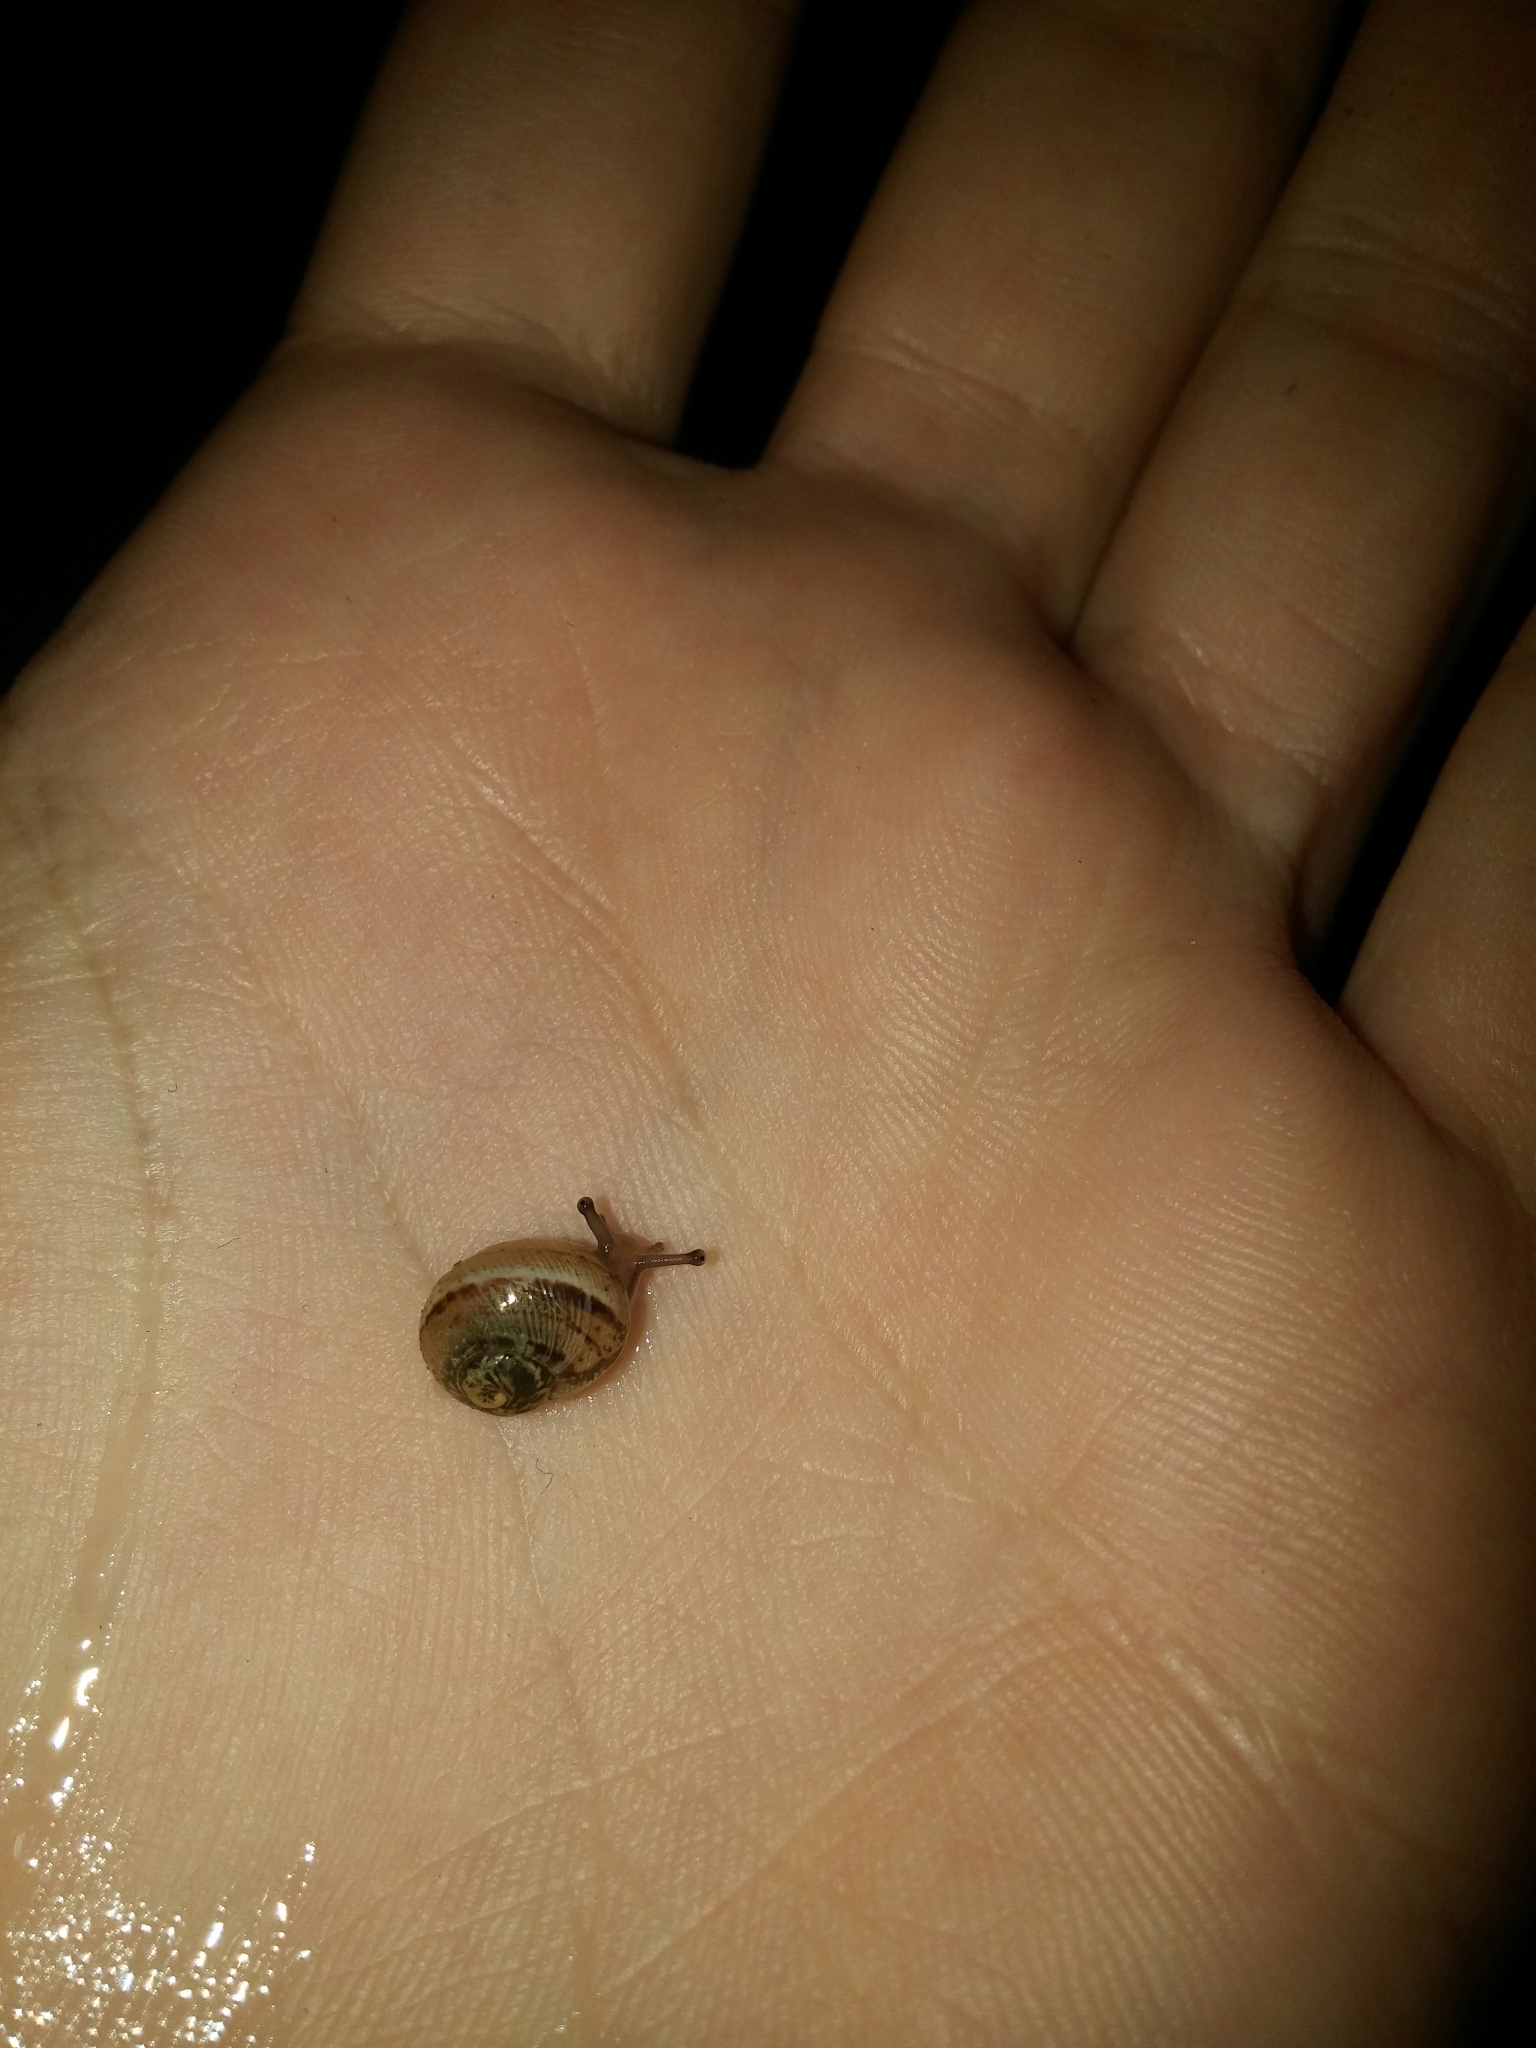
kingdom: Animalia
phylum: Mollusca
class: Gastropoda
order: Stylommatophora
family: Helicidae
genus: Cornu
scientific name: Cornu aspersum
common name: Brown garden snail
